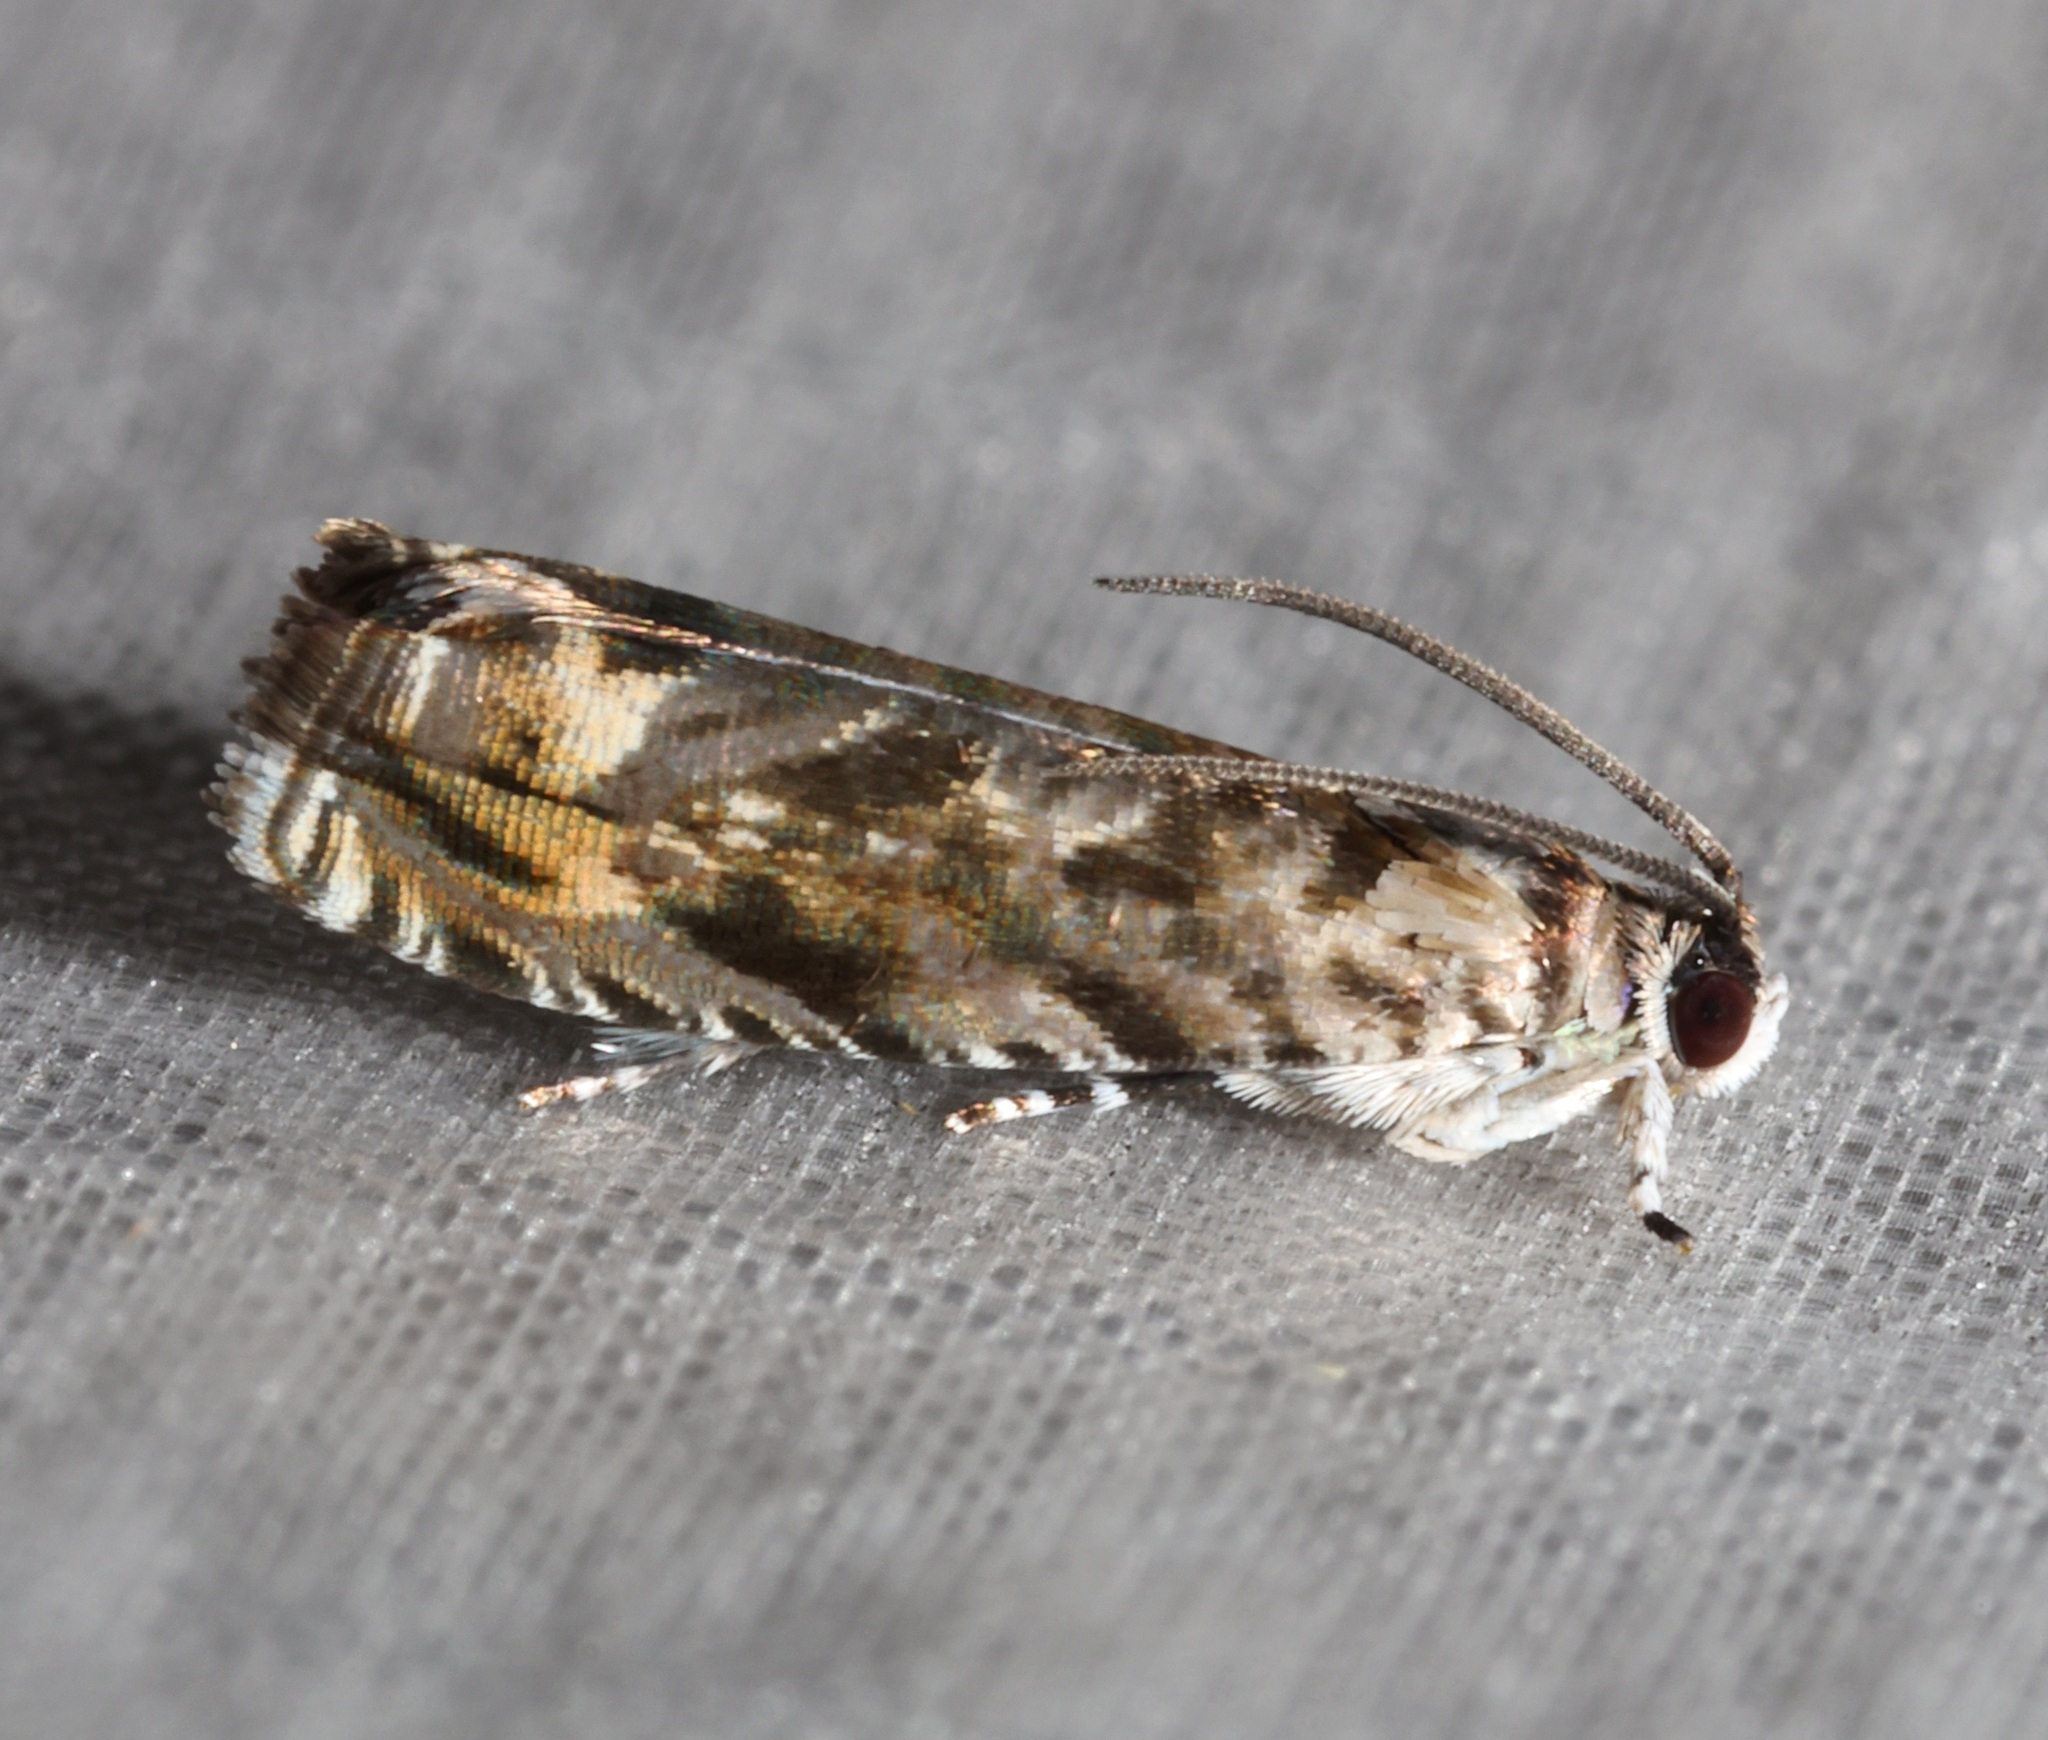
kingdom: Animalia
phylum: Arthropoda
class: Insecta
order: Lepidoptera
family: Tortricidae
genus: Cydia
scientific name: Cydia leucostoma
